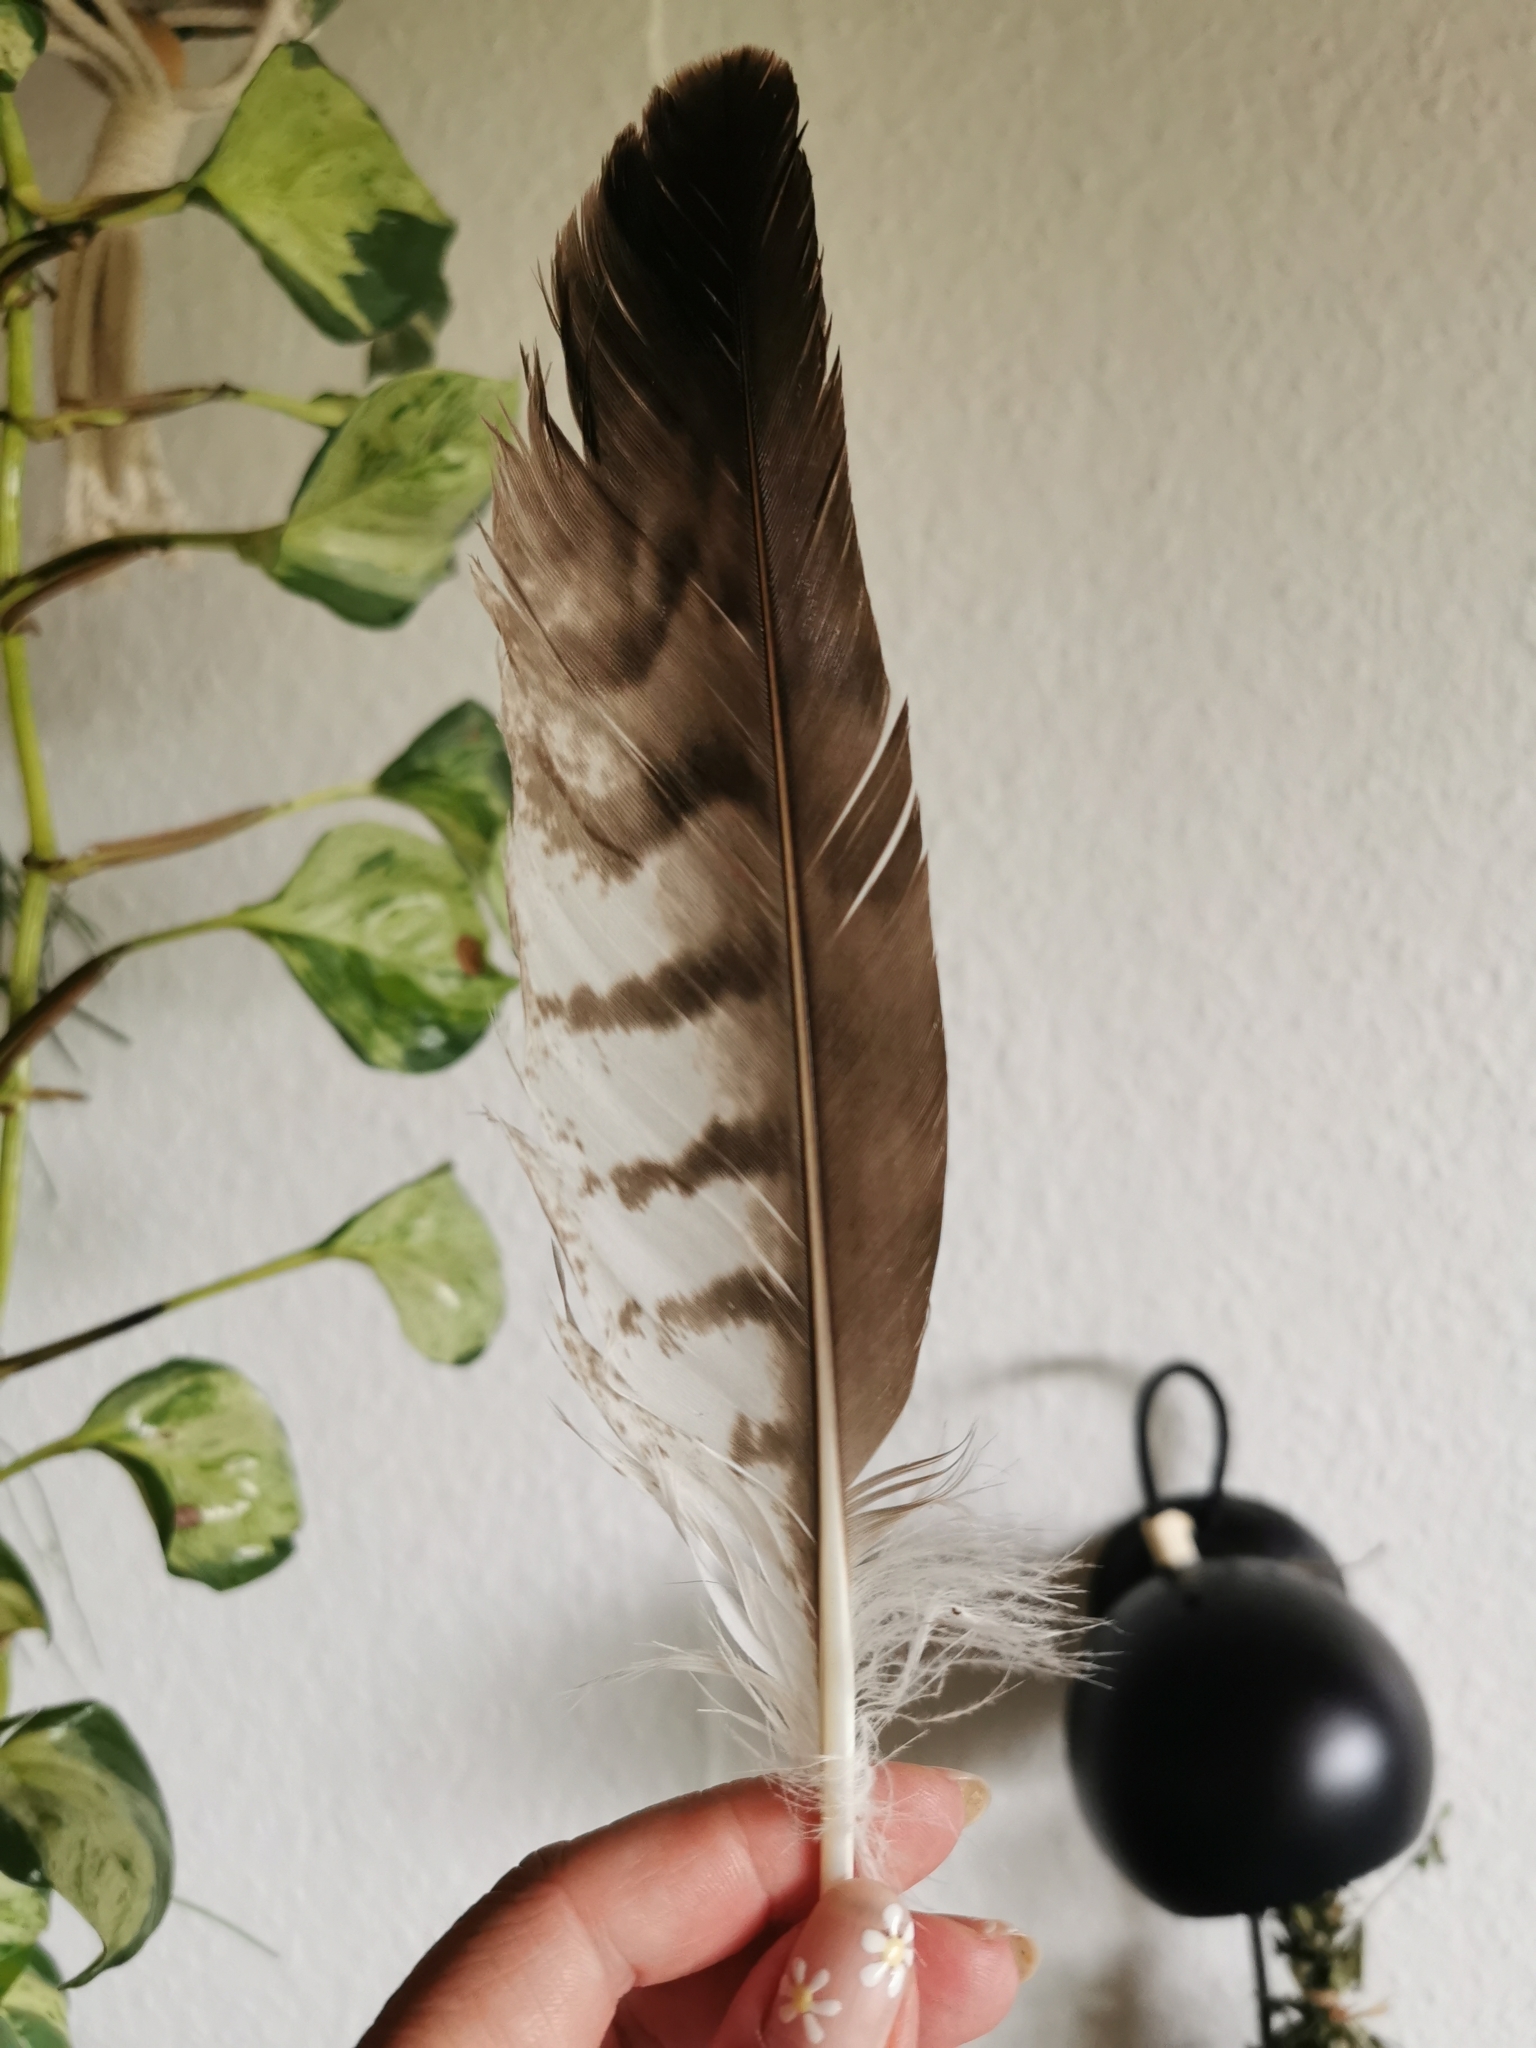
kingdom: Animalia
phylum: Chordata
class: Aves
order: Accipitriformes
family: Accipitridae
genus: Buteo
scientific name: Buteo buteo
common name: Common buzzard
